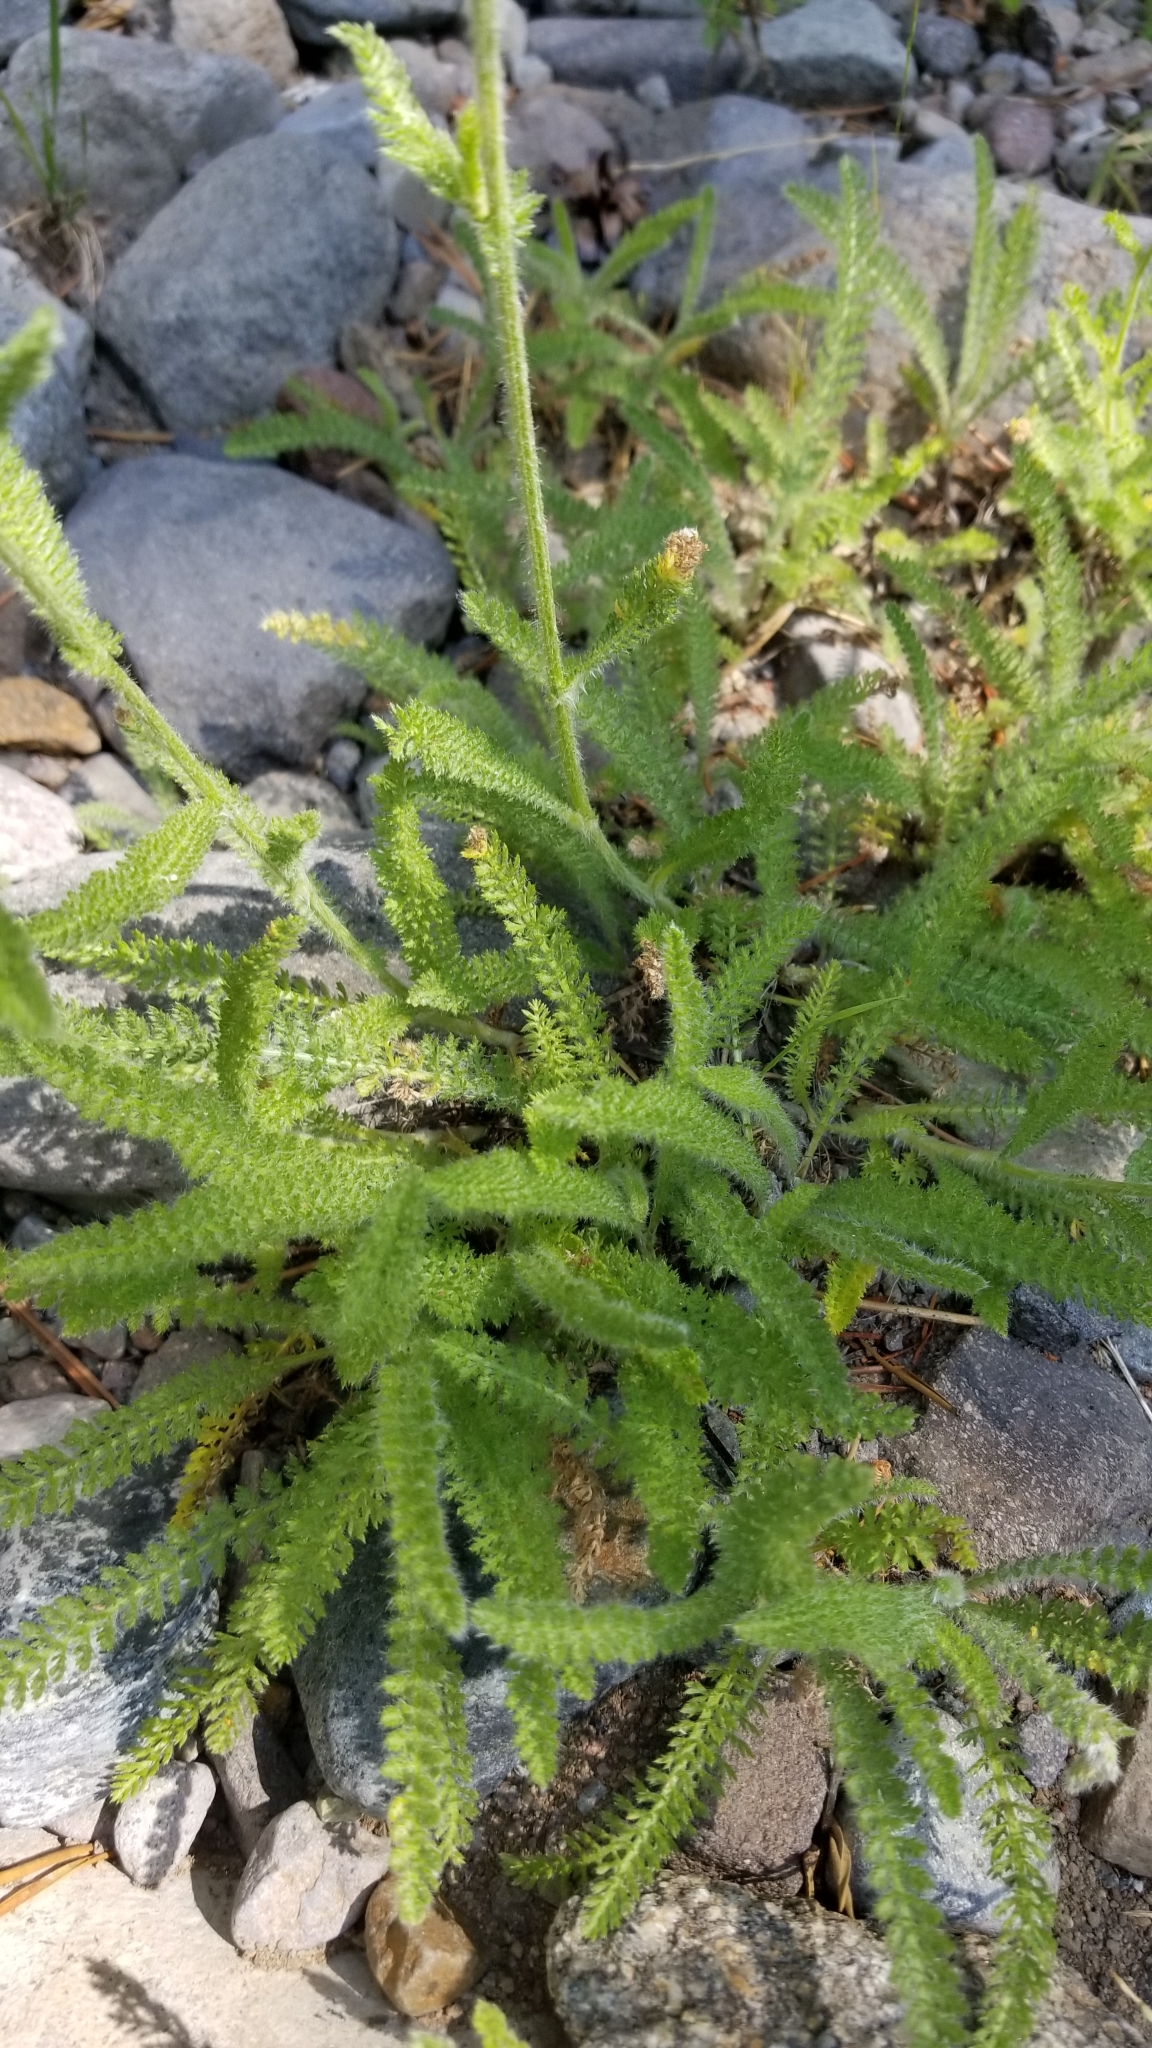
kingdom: Plantae
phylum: Tracheophyta
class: Magnoliopsida
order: Asterales
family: Asteraceae
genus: Achillea
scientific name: Achillea millefolium
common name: Yarrow
